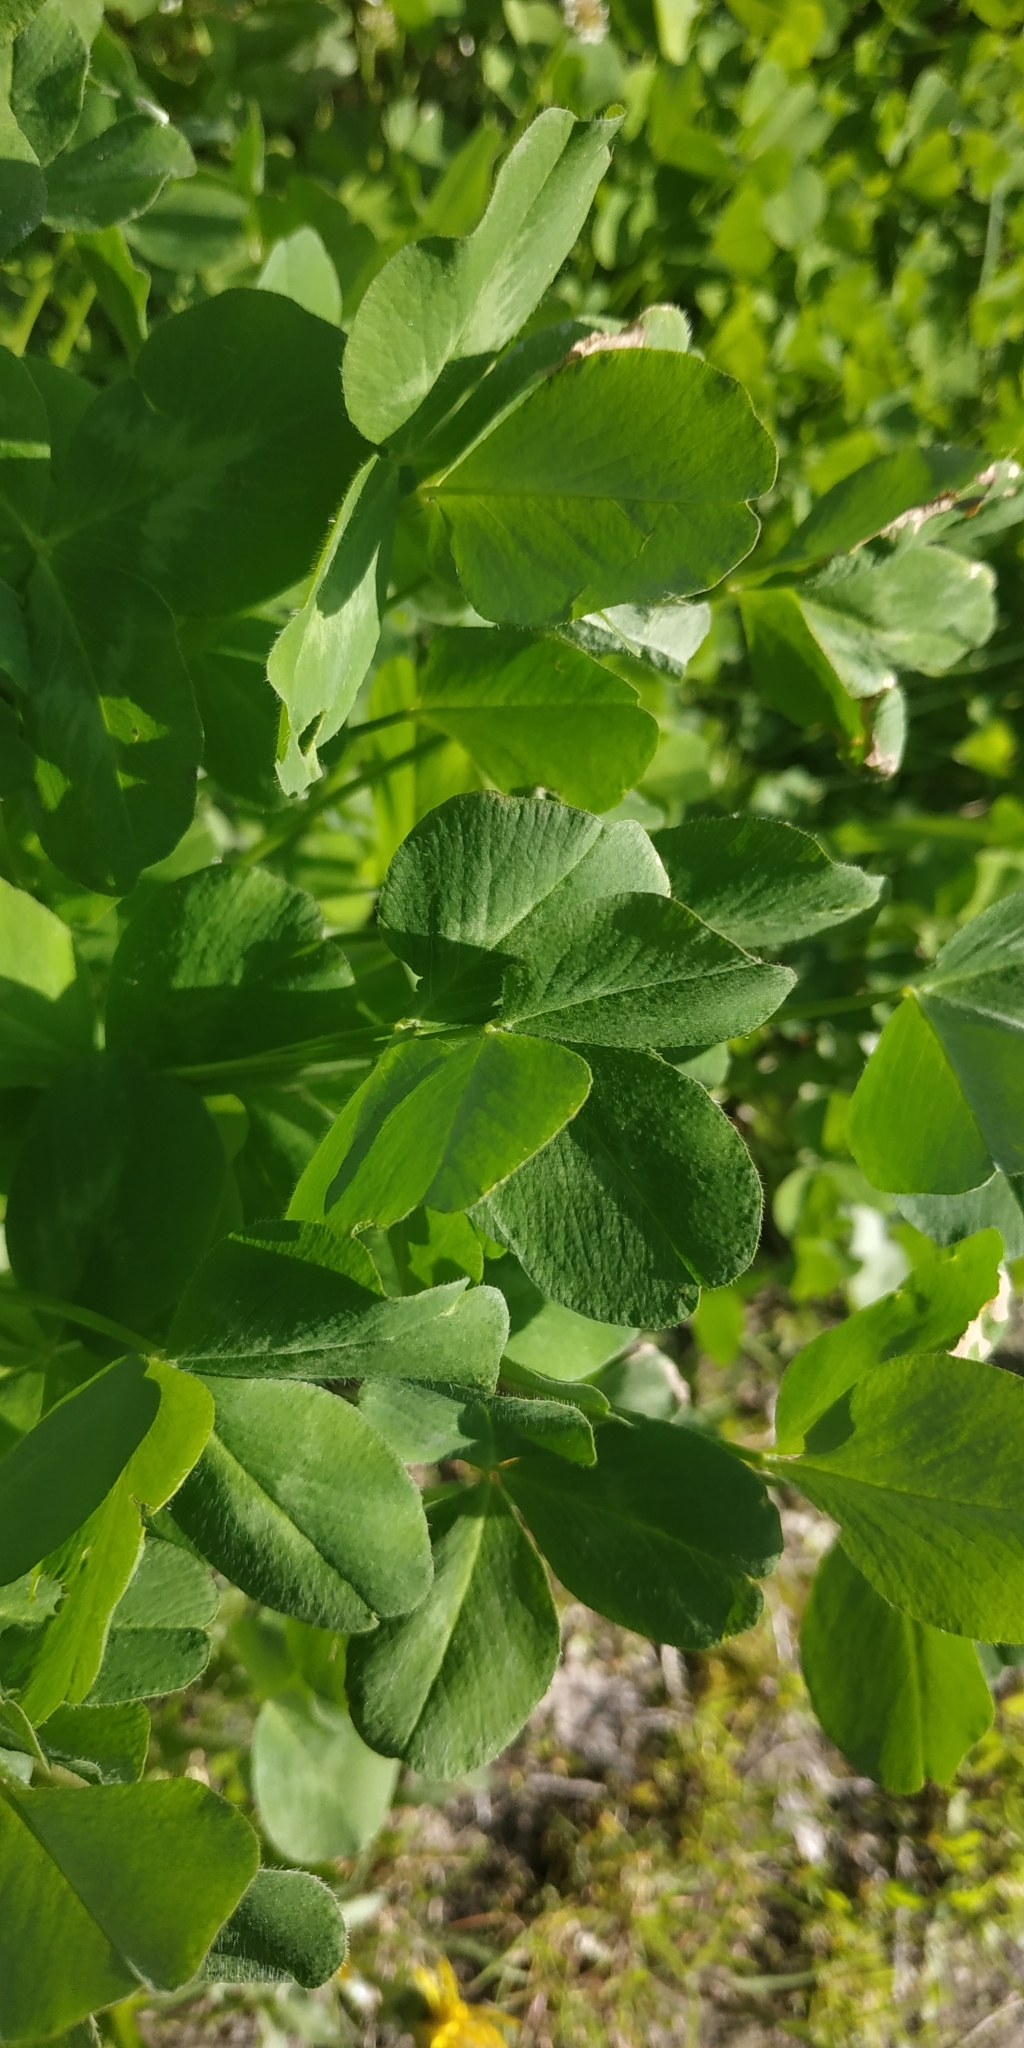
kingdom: Plantae
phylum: Tracheophyta
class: Magnoliopsida
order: Fabales
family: Fabaceae
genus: Trifolium
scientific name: Trifolium hybridum
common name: Alsike clover
